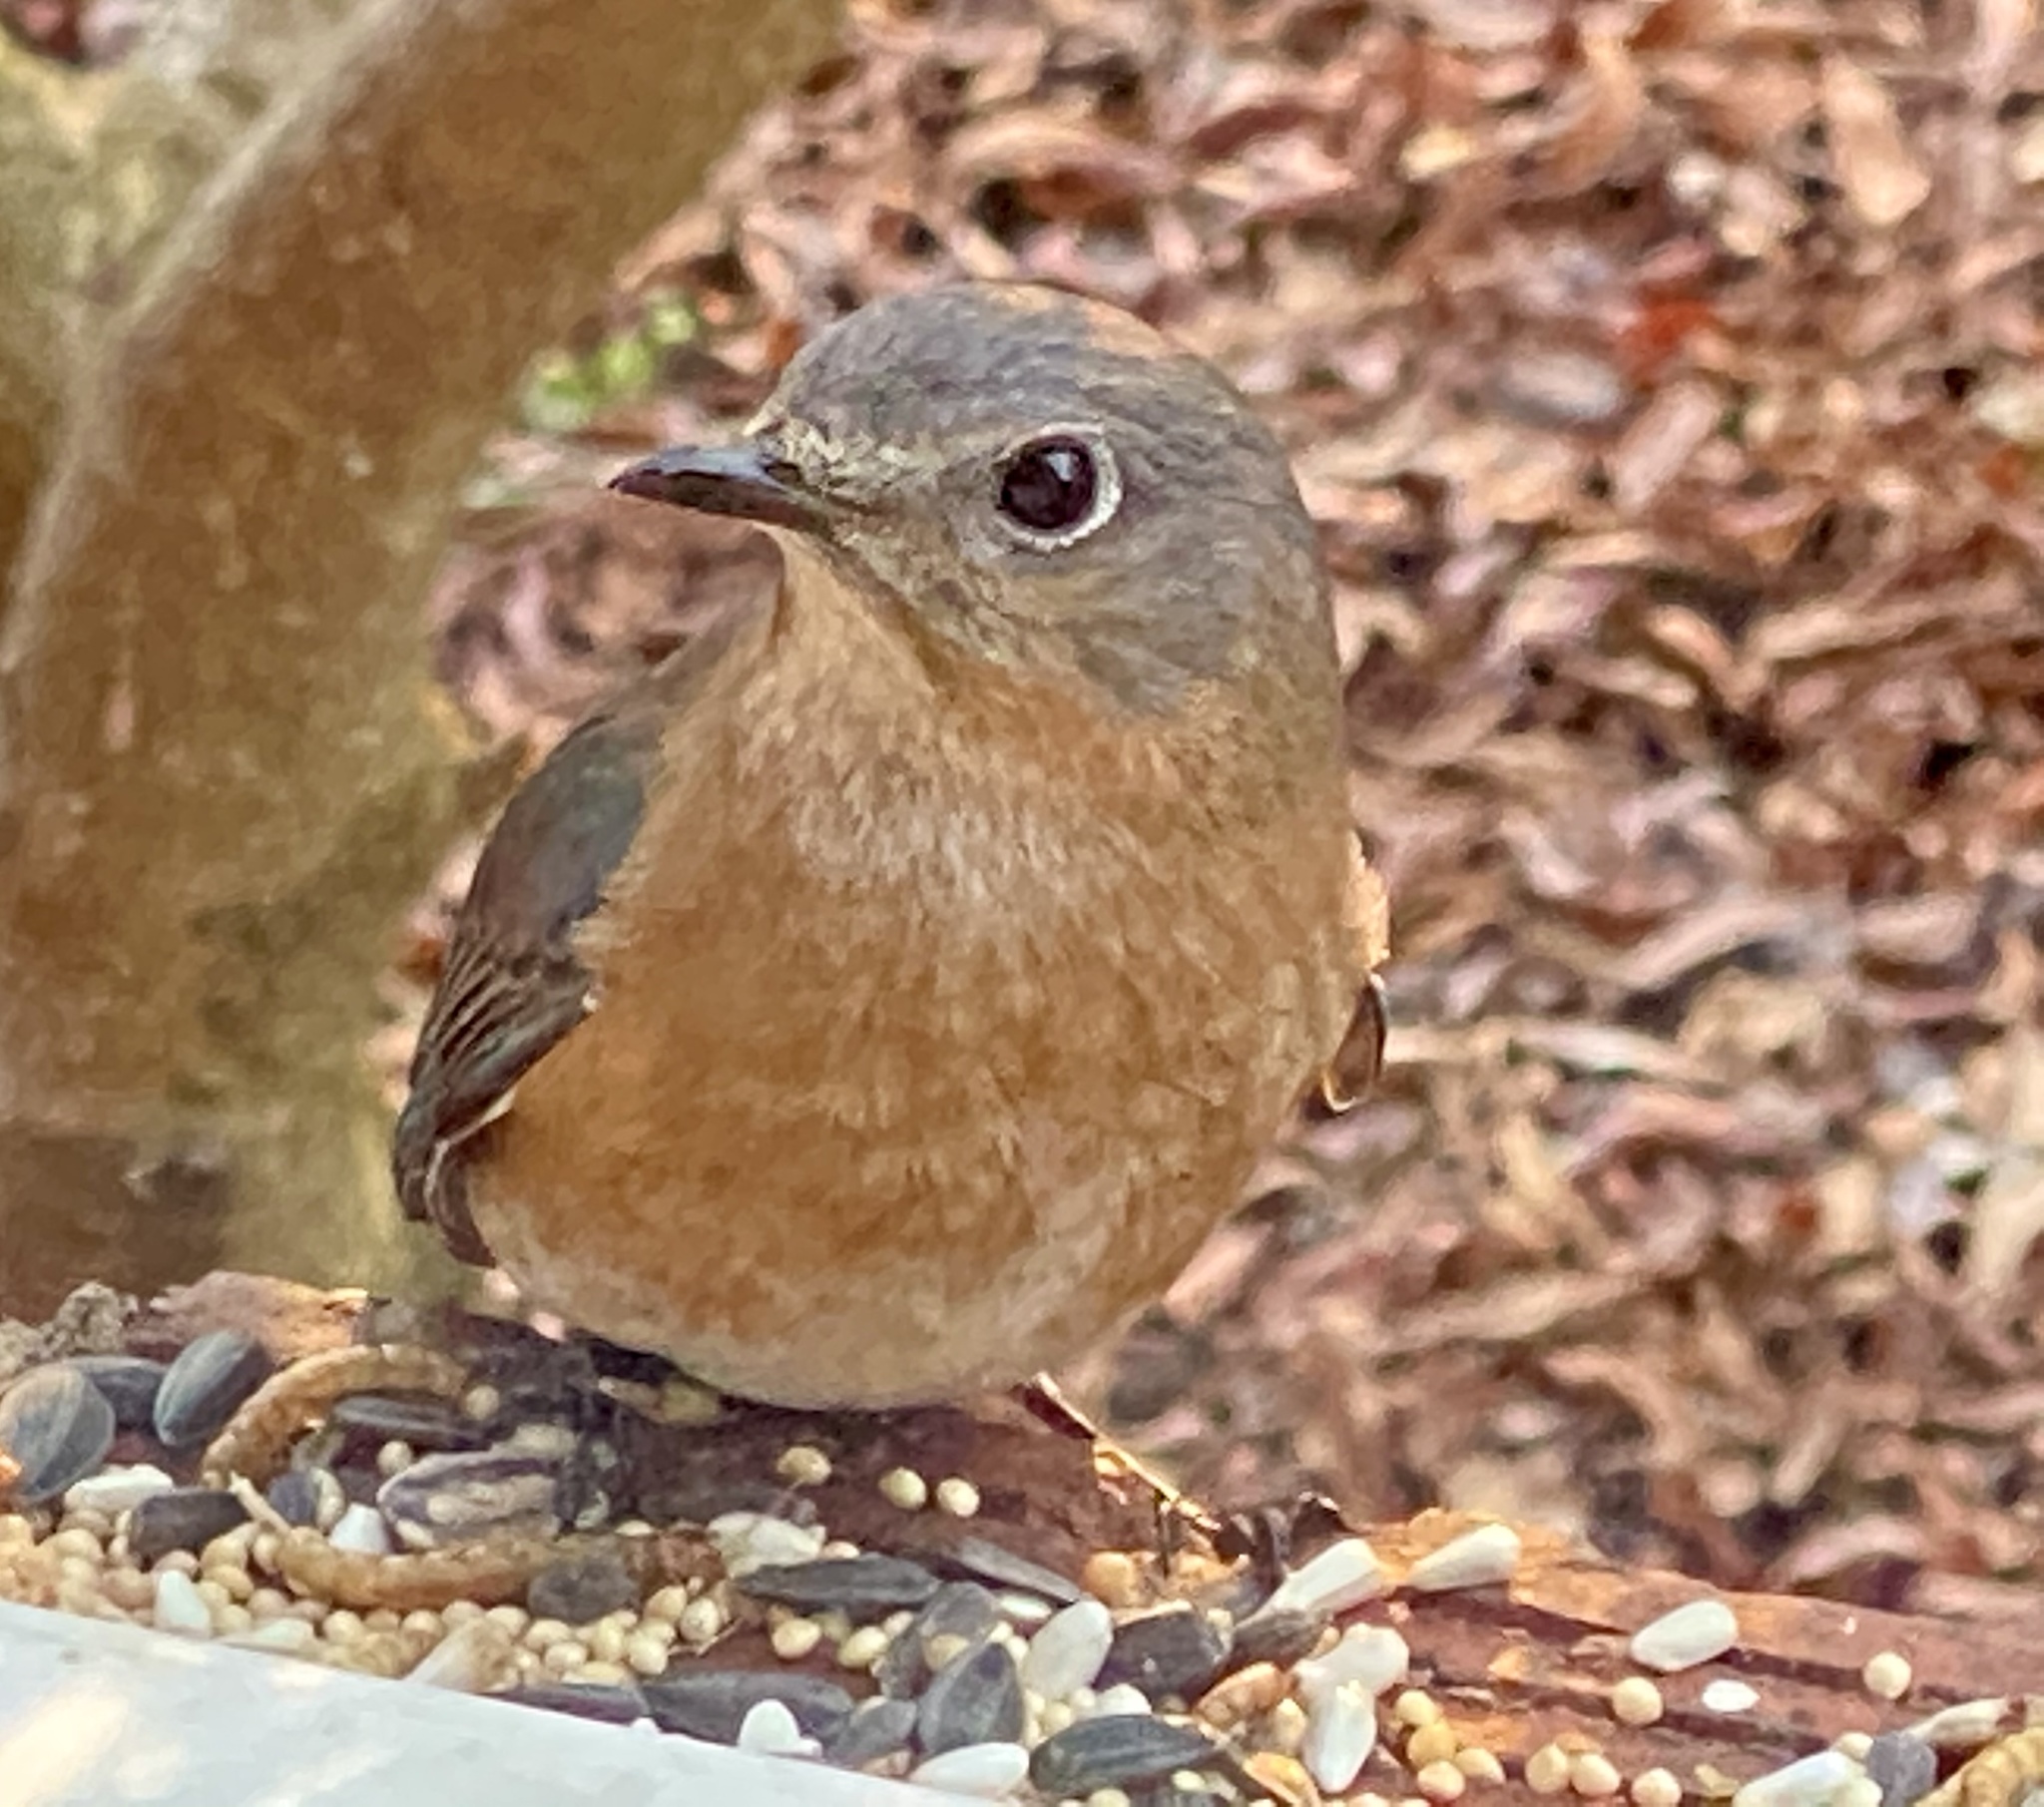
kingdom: Animalia
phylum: Chordata
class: Aves
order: Passeriformes
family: Turdidae
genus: Sialia
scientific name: Sialia sialis
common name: Eastern bluebird
